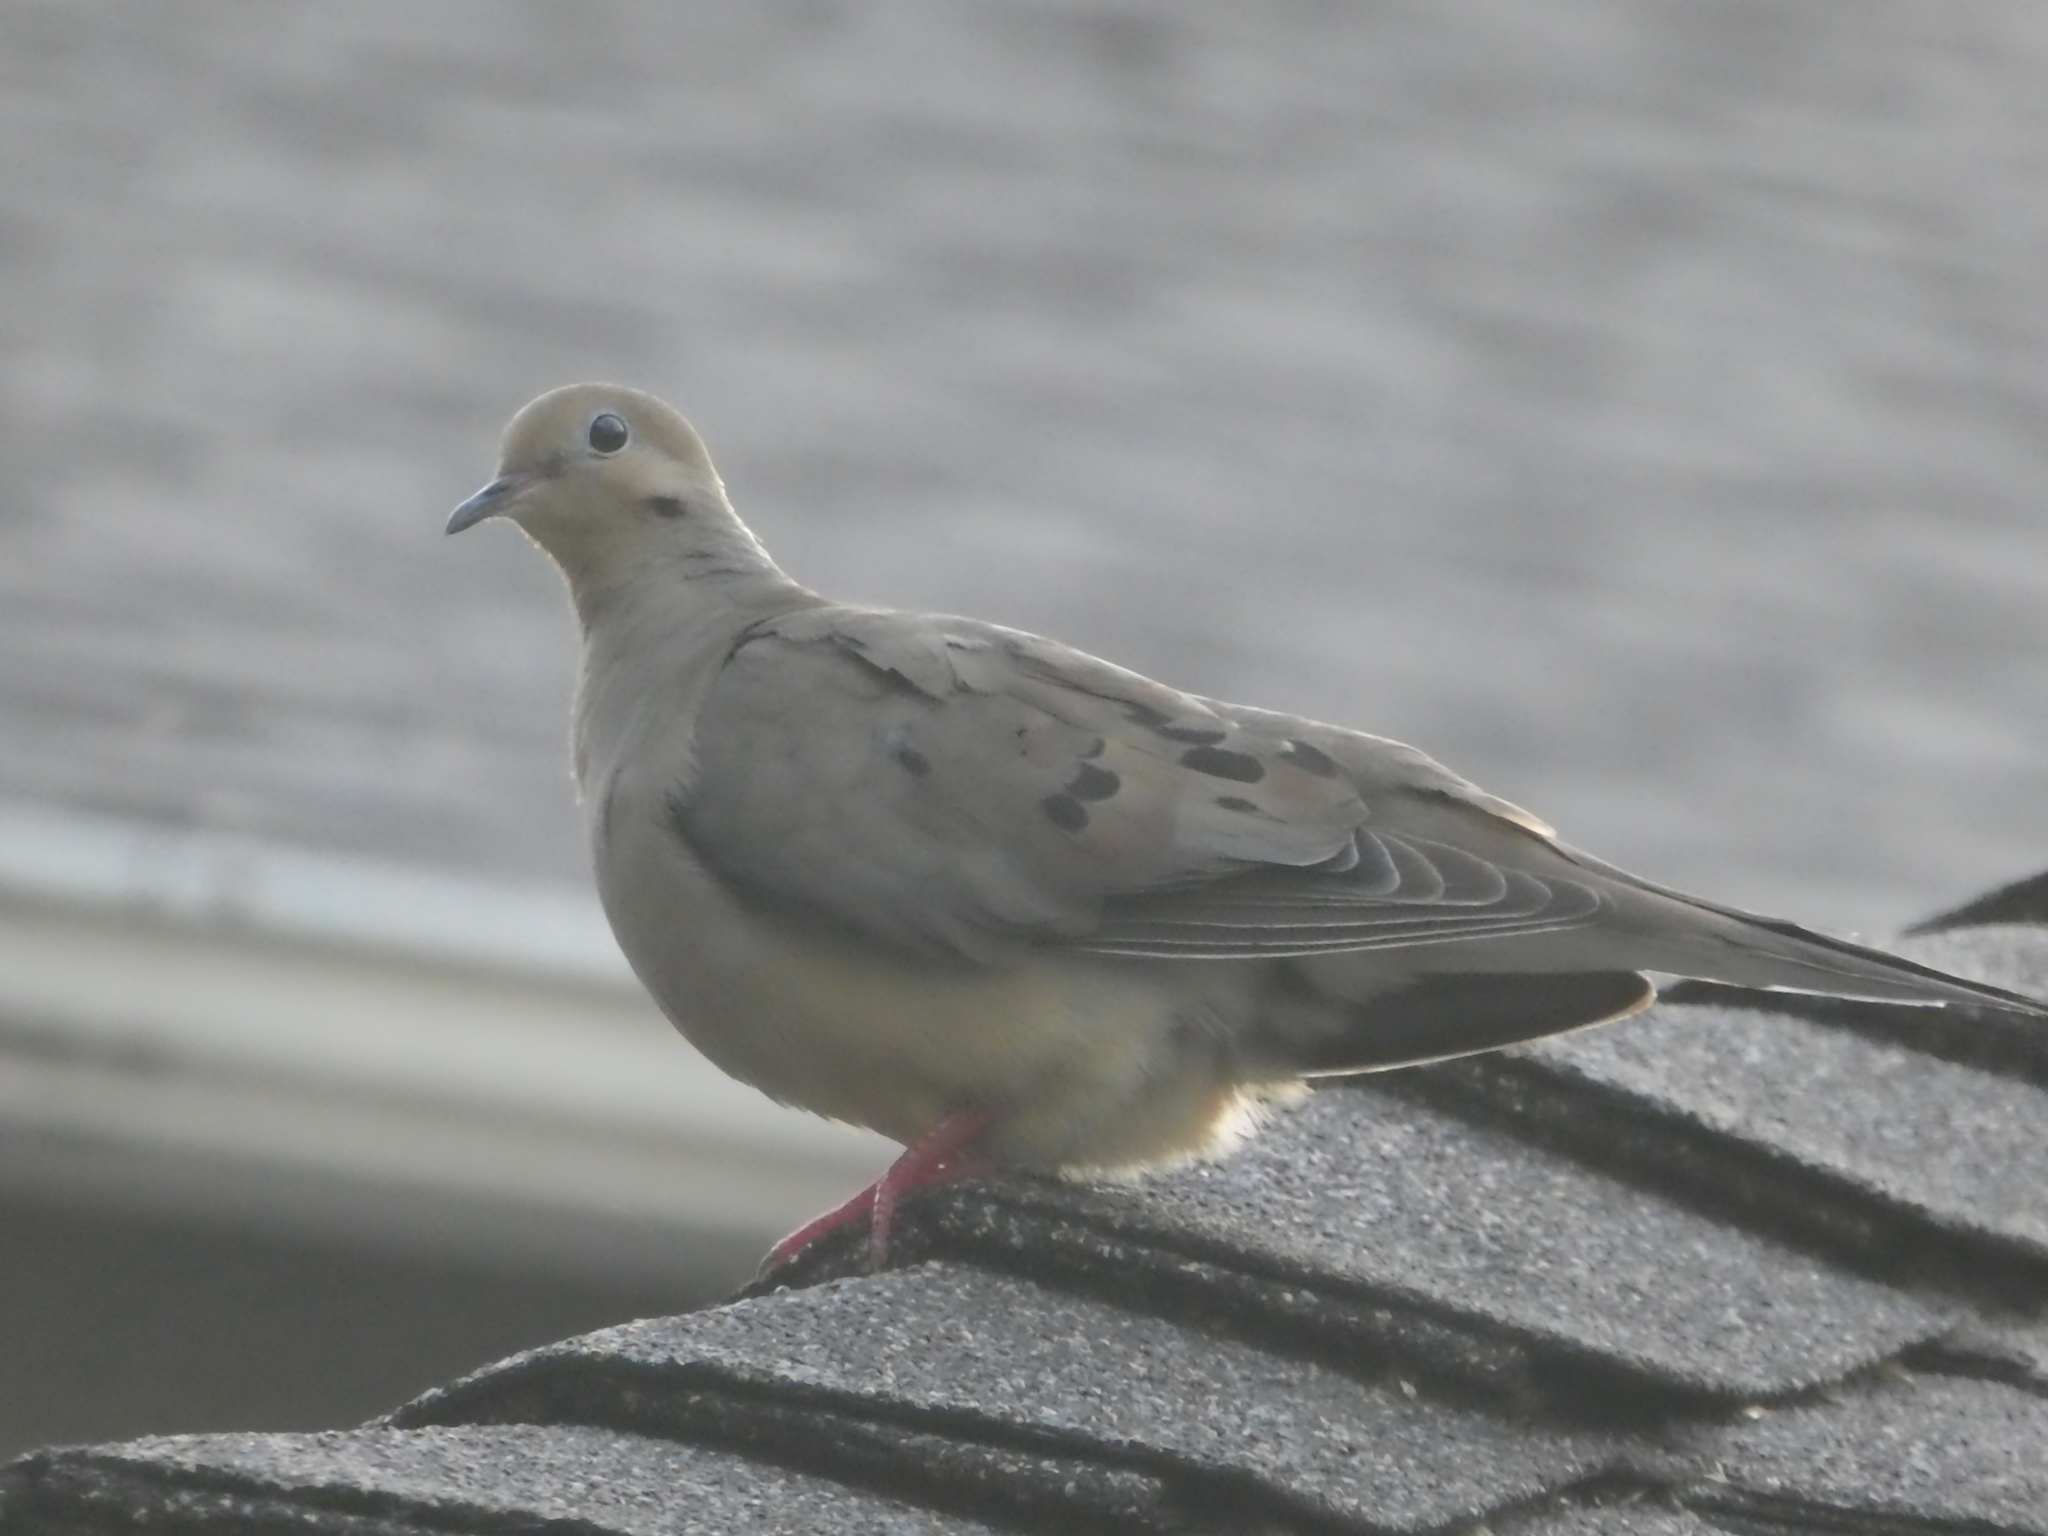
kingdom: Animalia
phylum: Chordata
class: Aves
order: Columbiformes
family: Columbidae
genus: Zenaida
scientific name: Zenaida macroura
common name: Mourning dove
